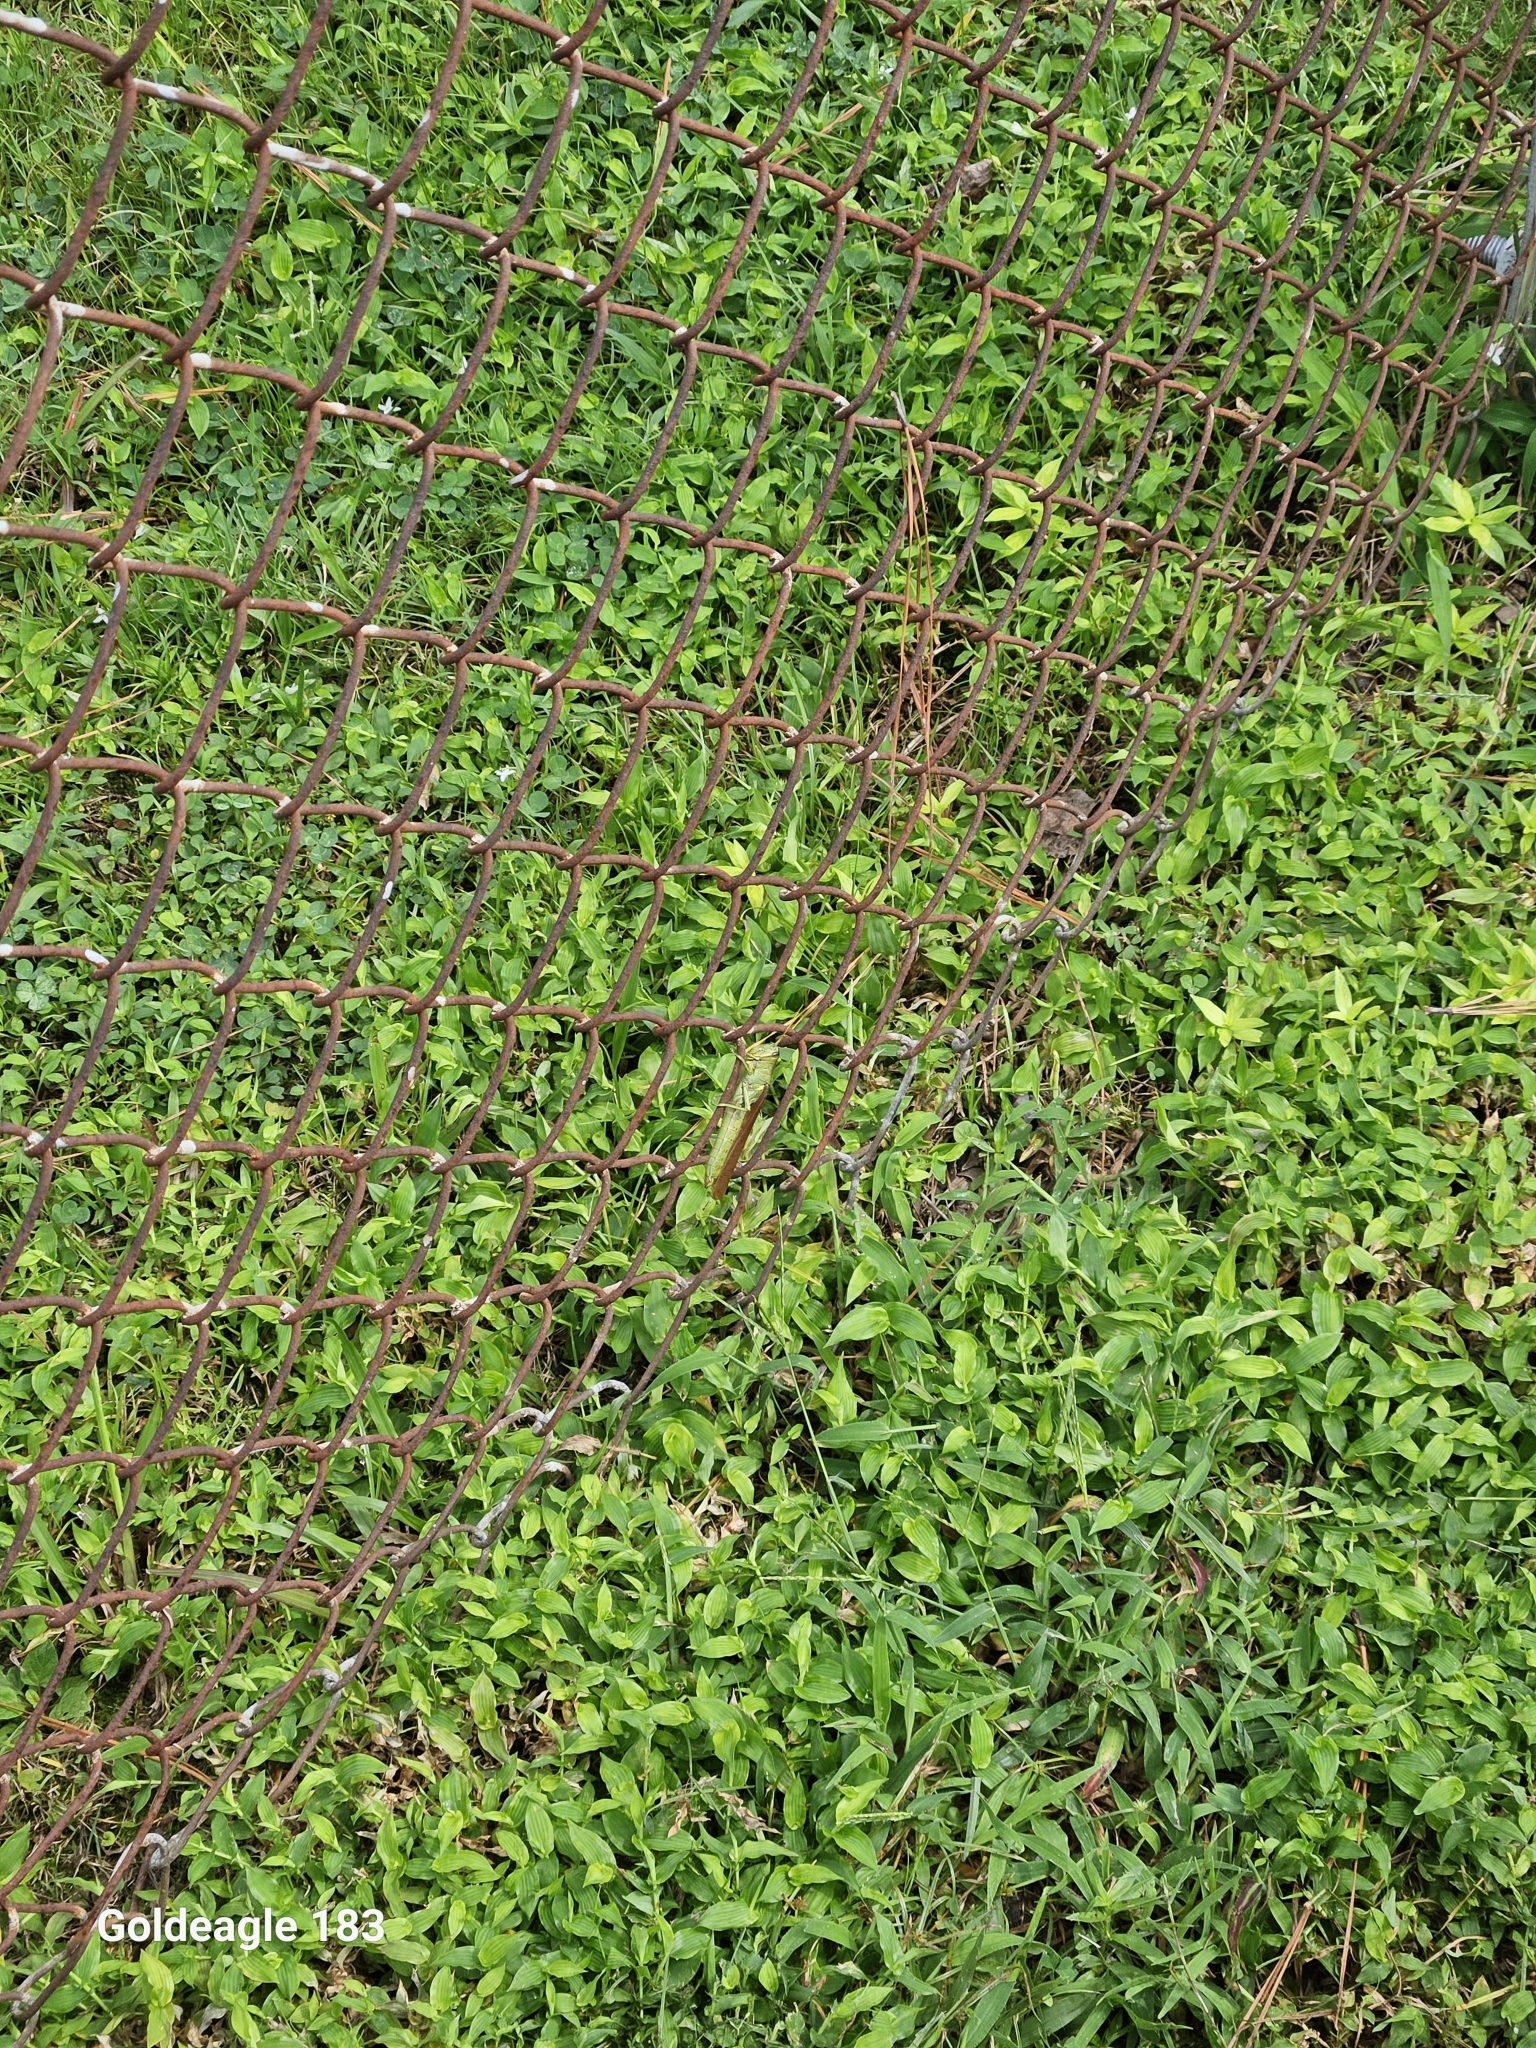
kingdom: Animalia
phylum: Arthropoda
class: Insecta
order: Orthoptera
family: Acrididae
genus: Schistocerca
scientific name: Schistocerca obscura
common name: Obscure bird grasshopper
